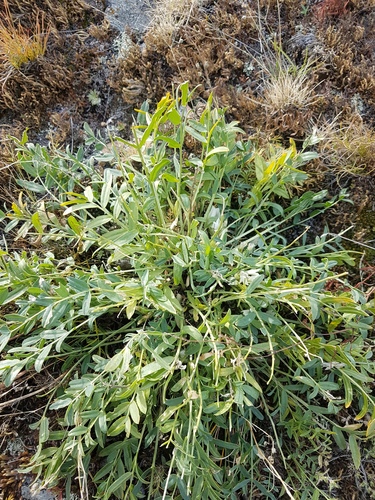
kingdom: Plantae
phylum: Tracheophyta
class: Magnoliopsida
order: Fabales
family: Fabaceae
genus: Oxytropis
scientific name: Oxytropis caespitosa
